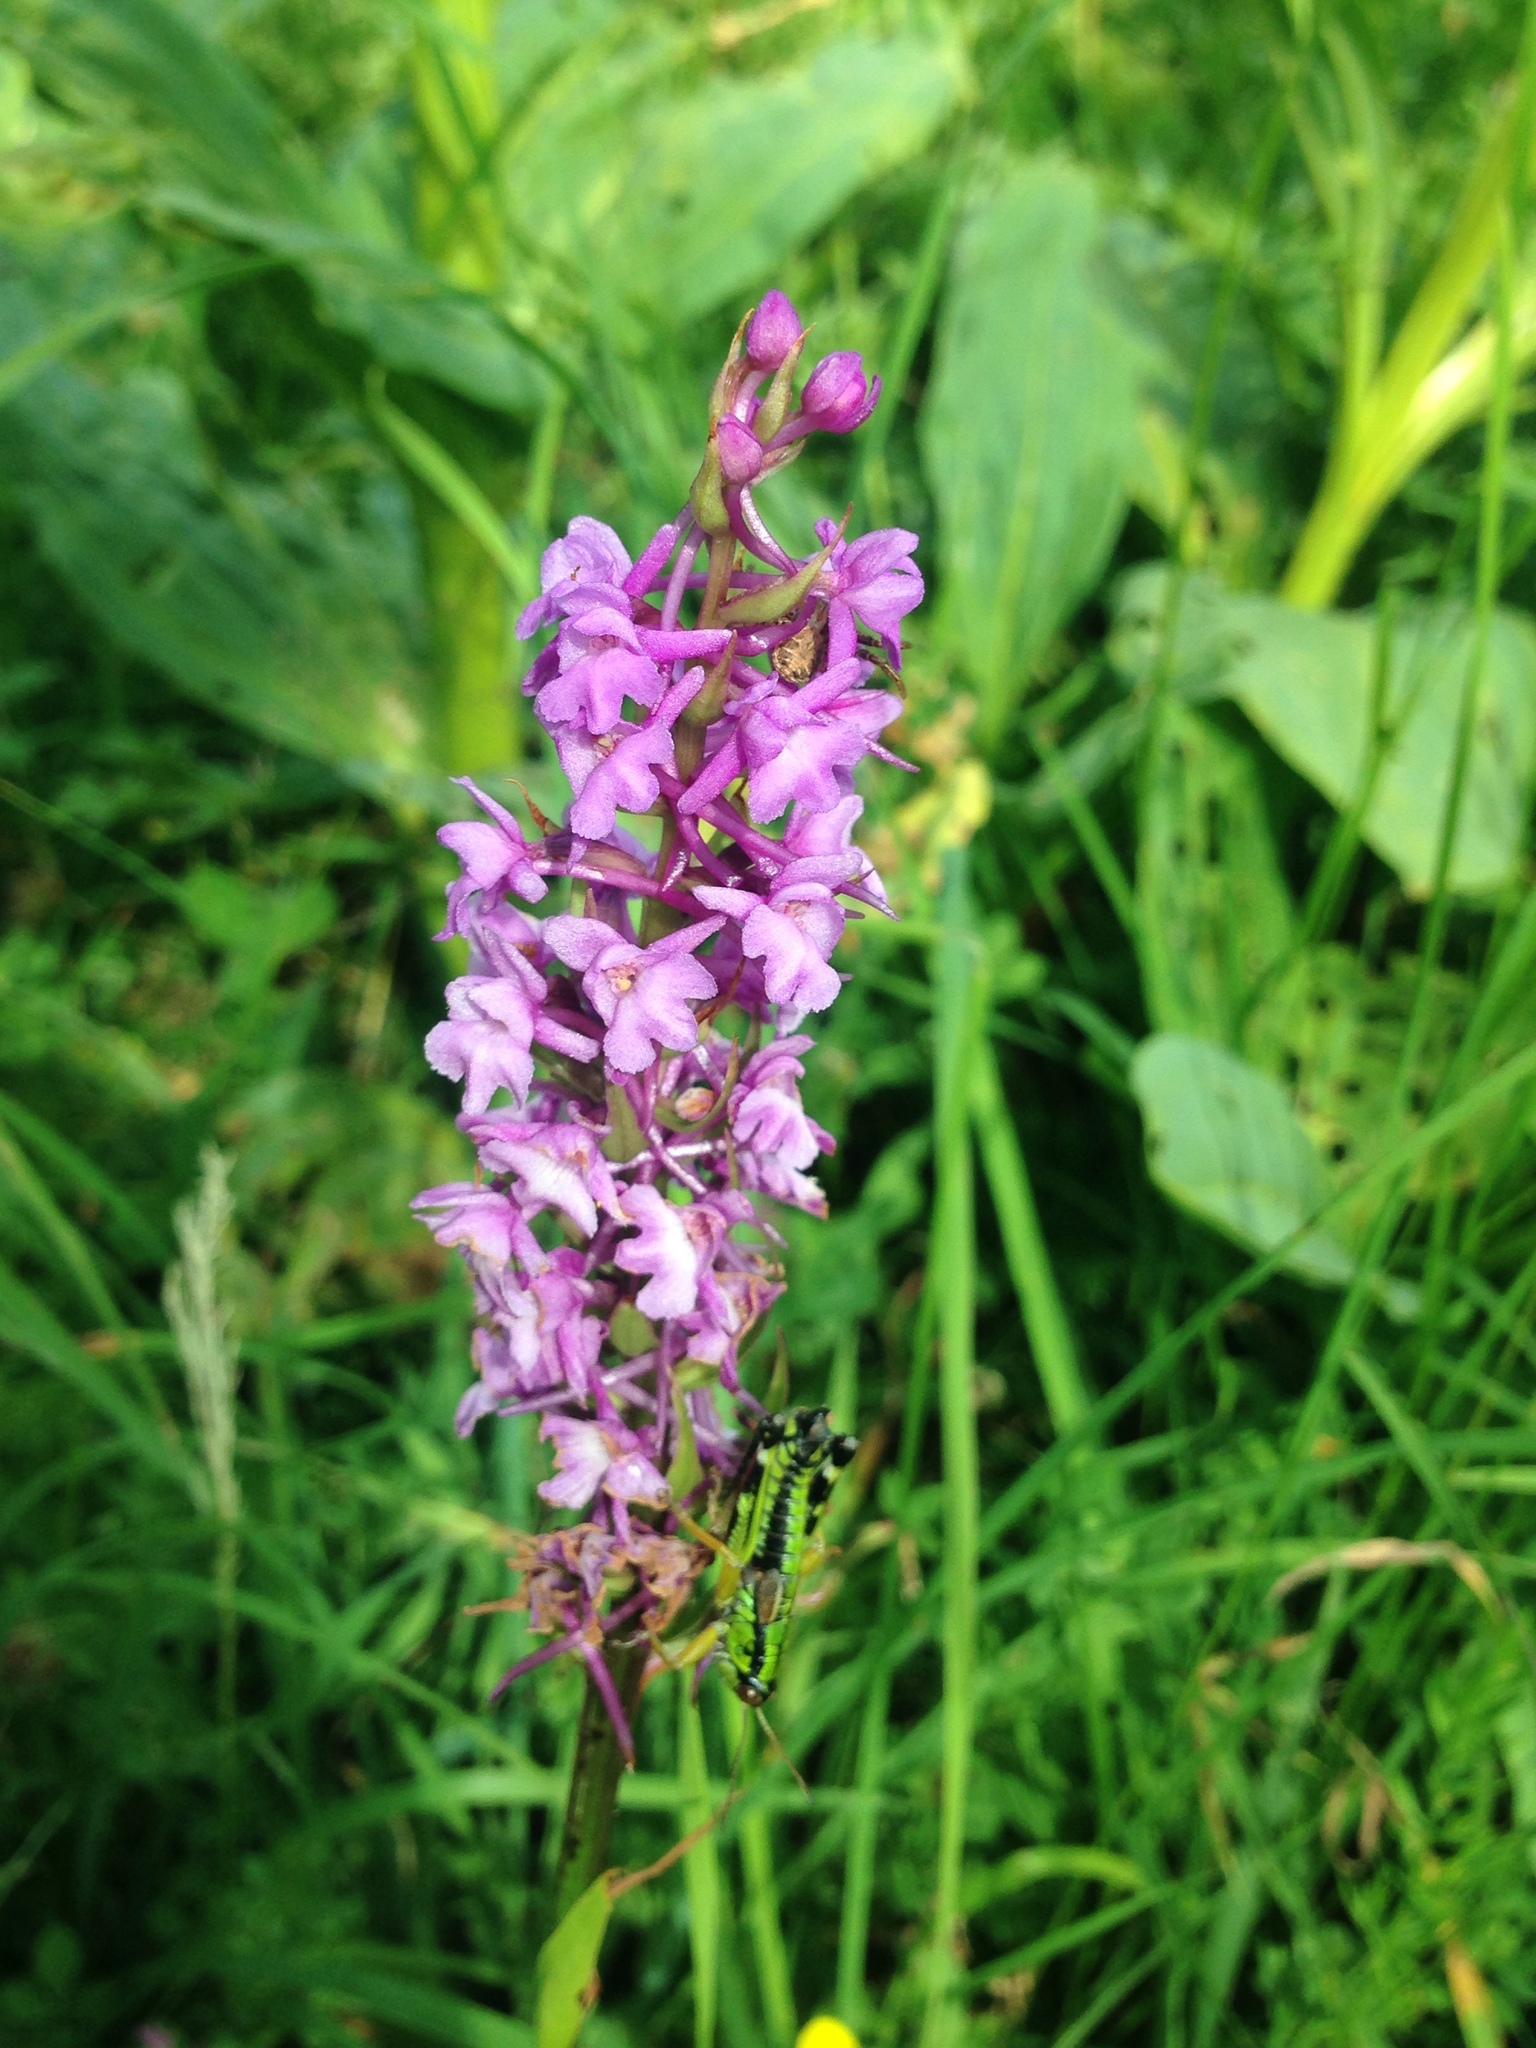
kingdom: Plantae
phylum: Tracheophyta
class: Liliopsida
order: Asparagales
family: Orchidaceae
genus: Gymnadenia
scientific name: Gymnadenia conopsea
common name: Fragrant orchid
